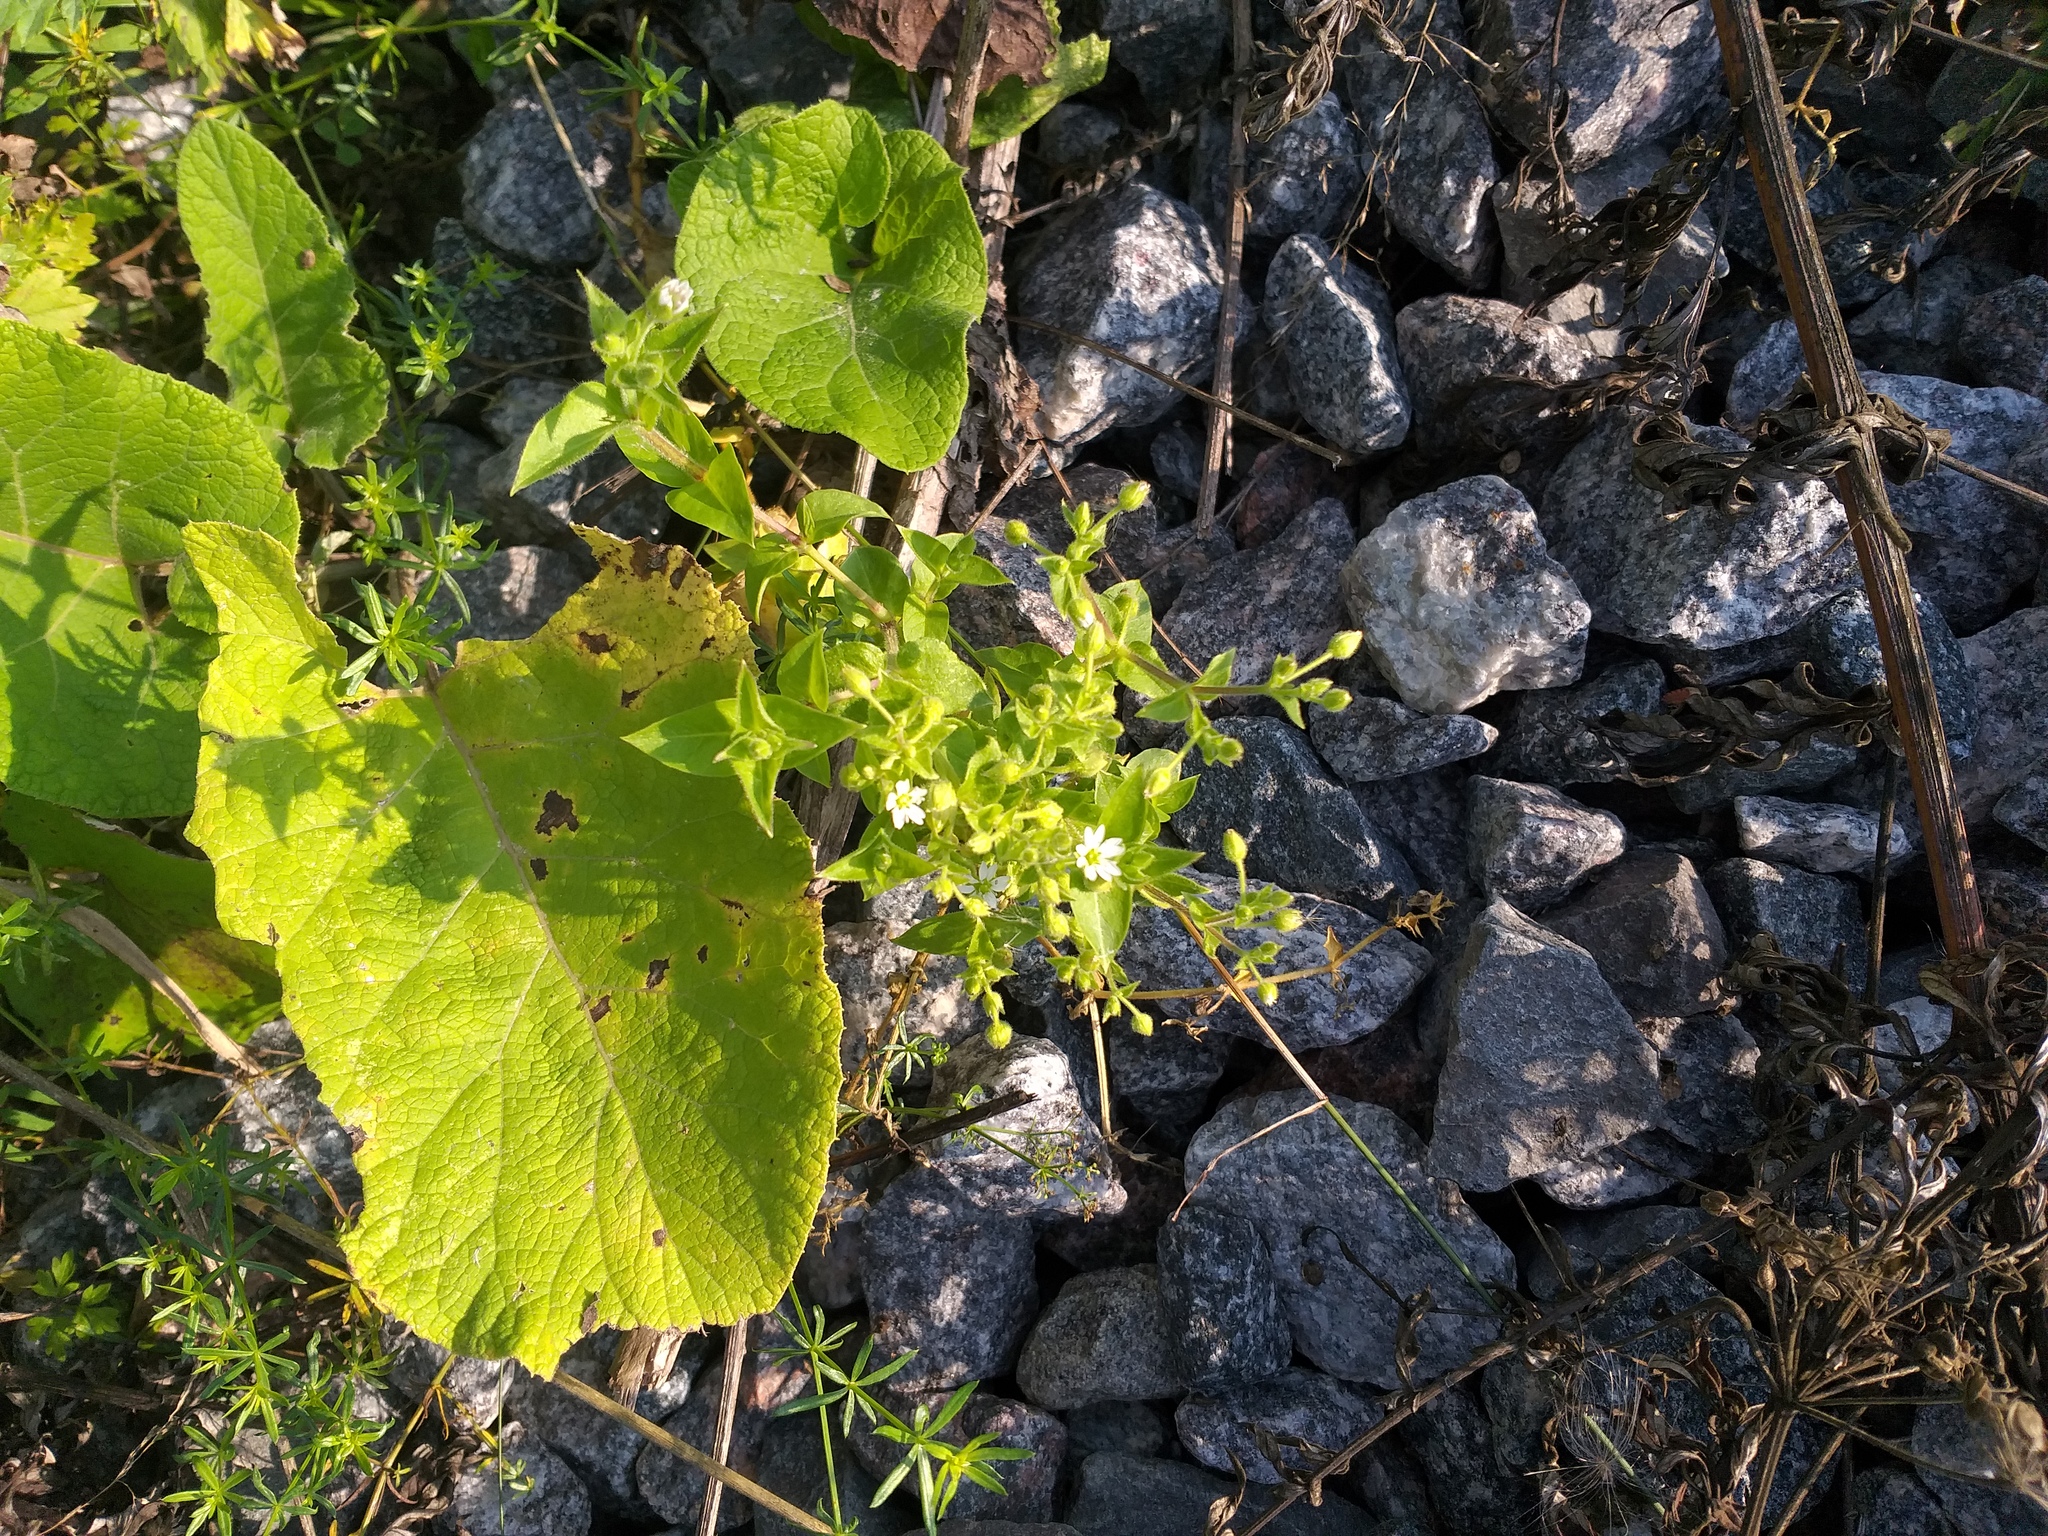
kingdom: Plantae
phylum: Tracheophyta
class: Magnoliopsida
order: Caryophyllales
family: Caryophyllaceae
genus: Stellaria
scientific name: Stellaria aquatica
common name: Water chickweed
